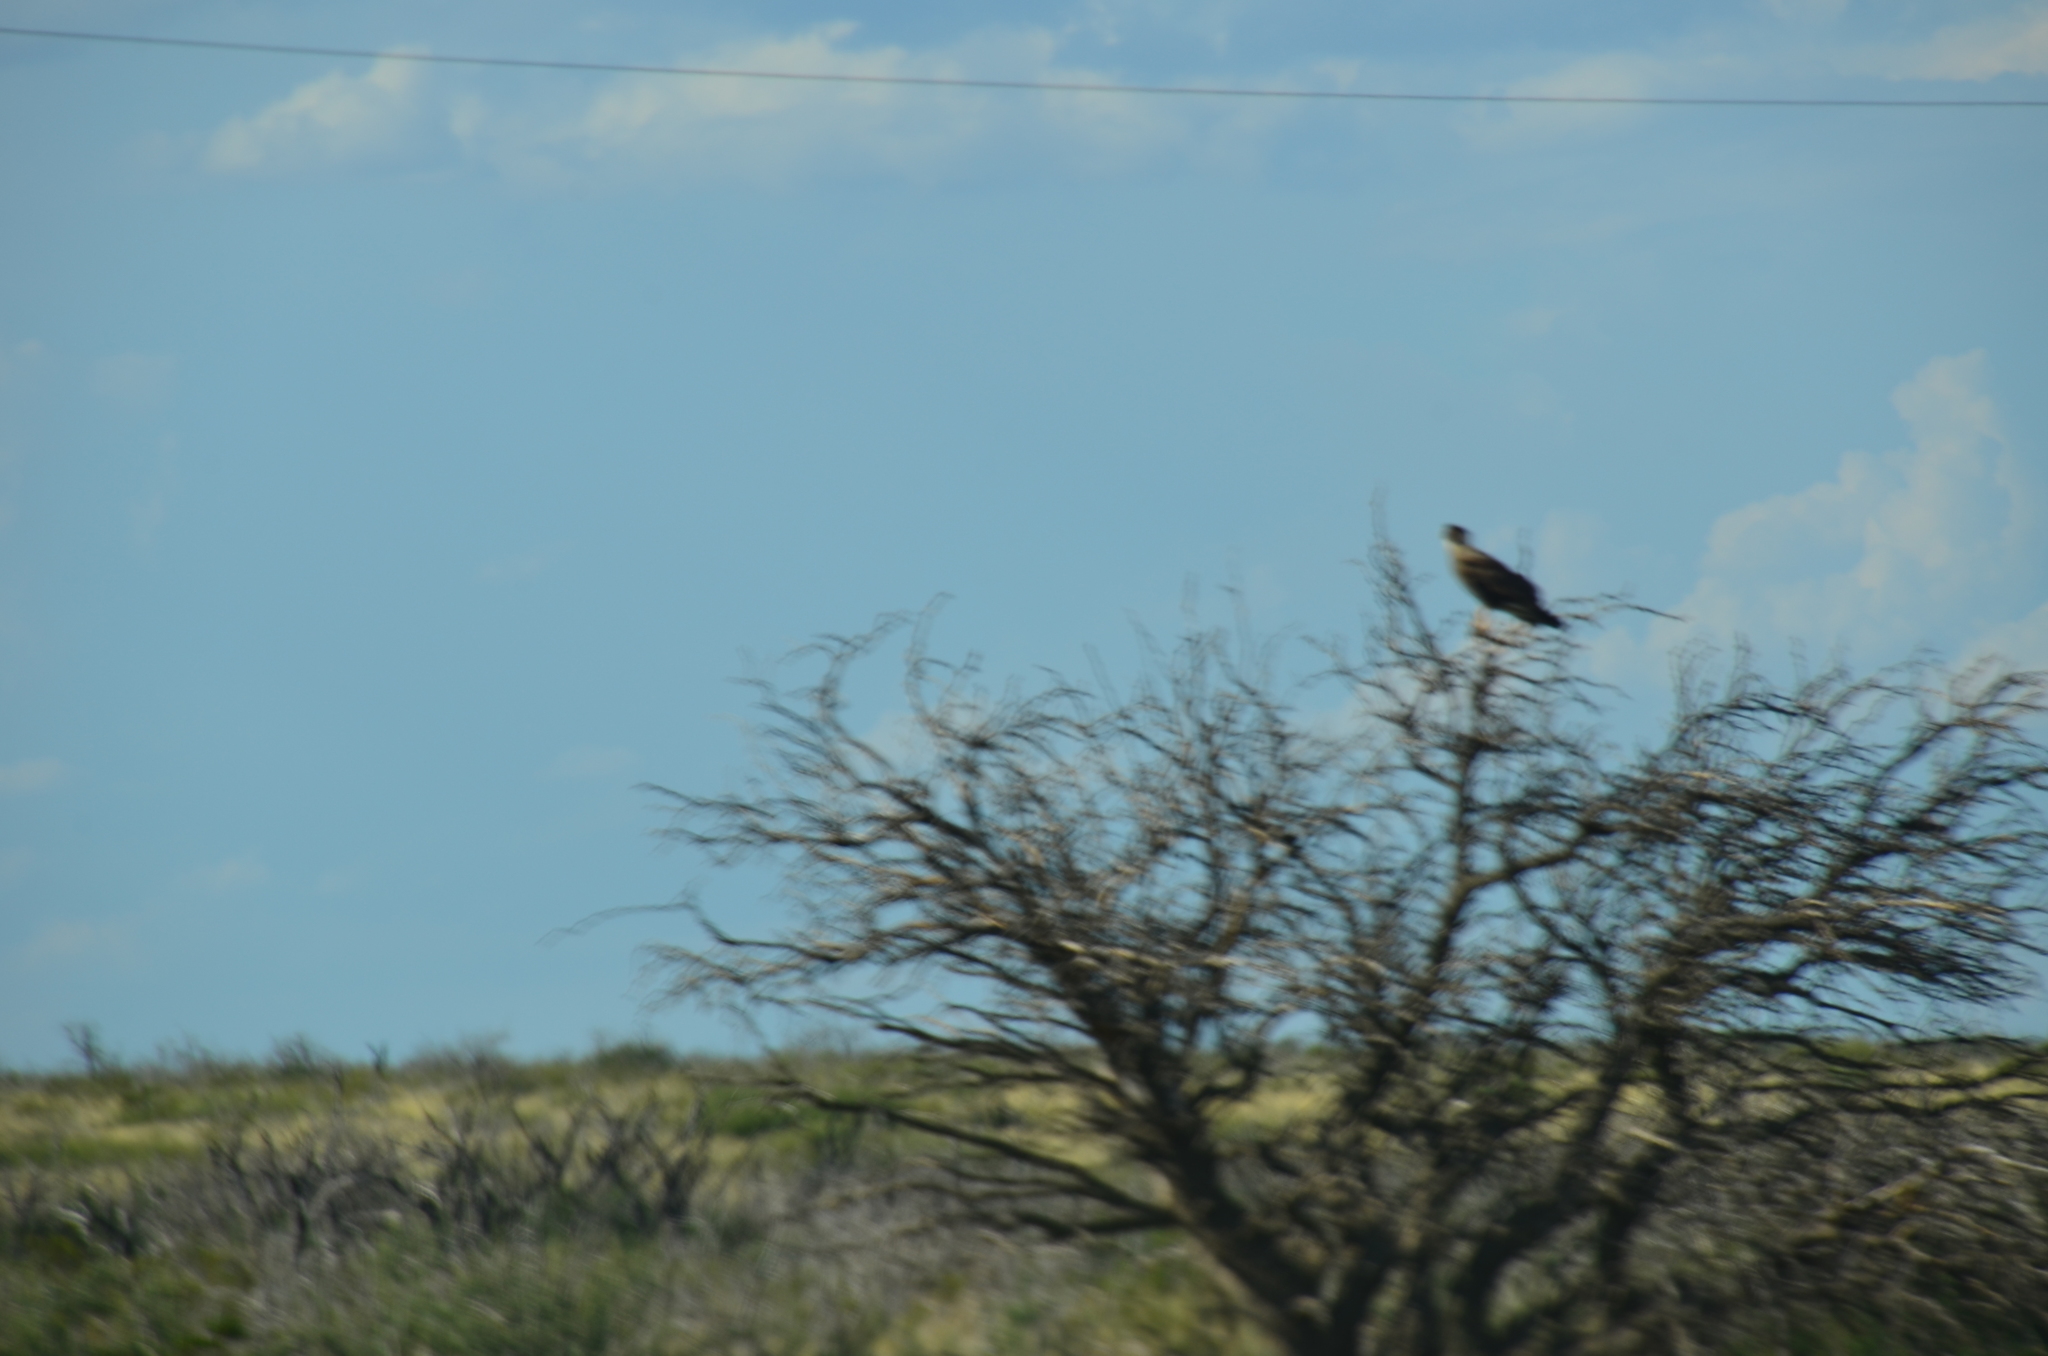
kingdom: Animalia
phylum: Chordata
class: Aves
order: Falconiformes
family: Falconidae
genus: Caracara
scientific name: Caracara plancus
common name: Southern caracara
